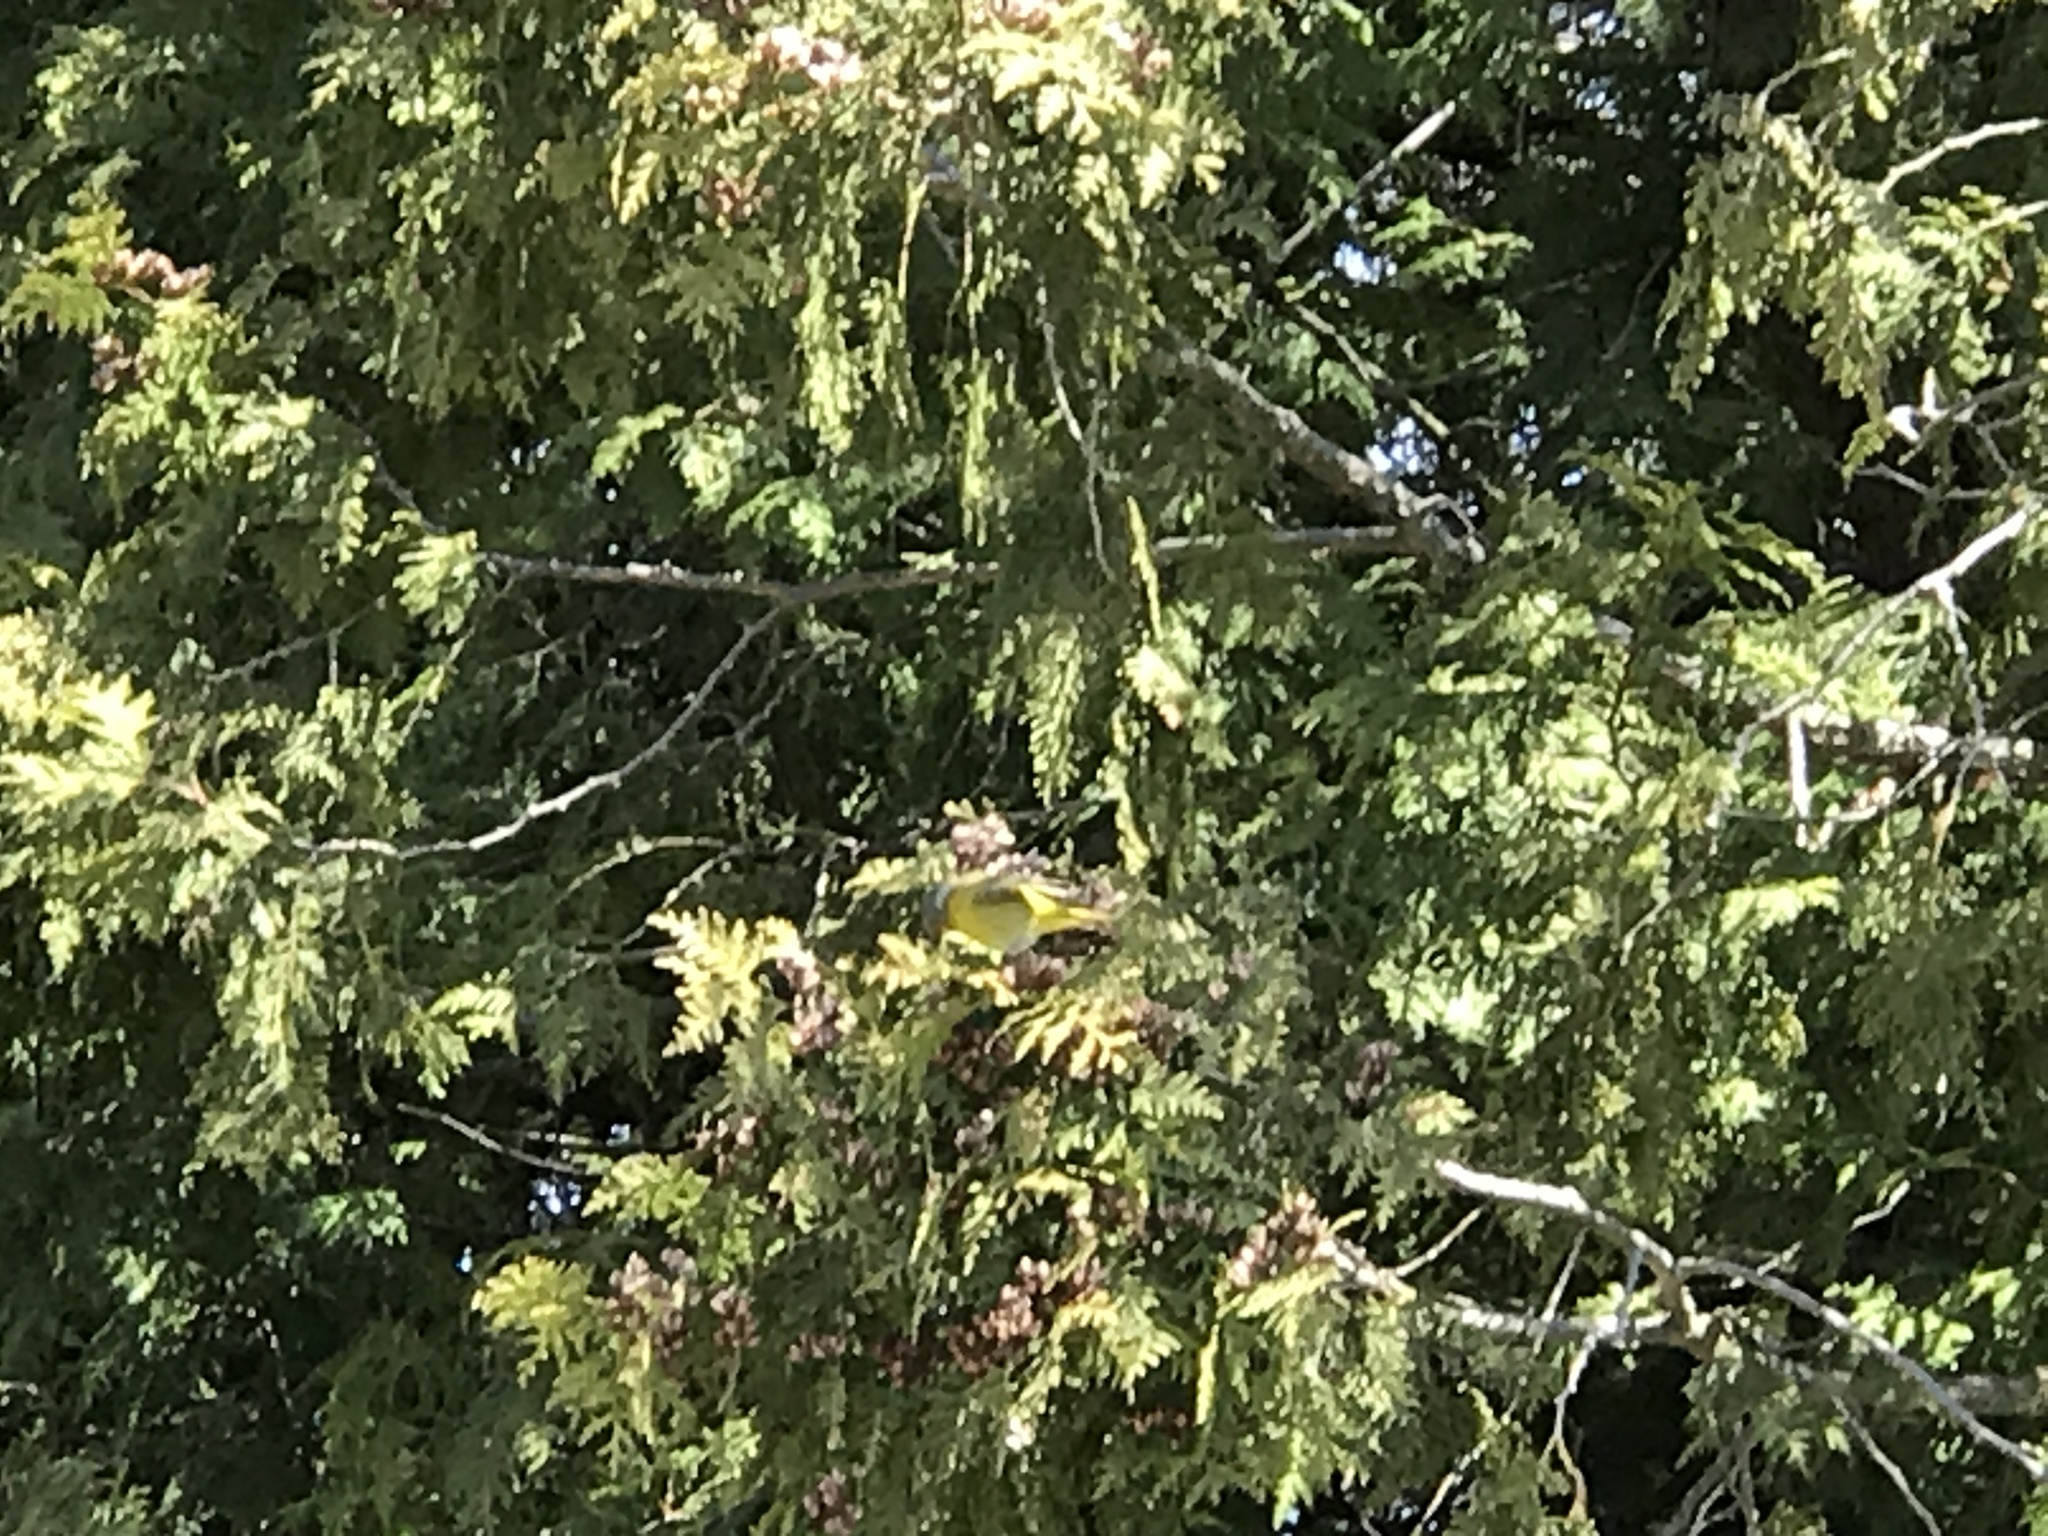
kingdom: Animalia
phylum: Chordata
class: Aves
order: Passeriformes
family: Parulidae
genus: Leiothlypis
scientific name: Leiothlypis ruficapilla
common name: Nashville warbler
